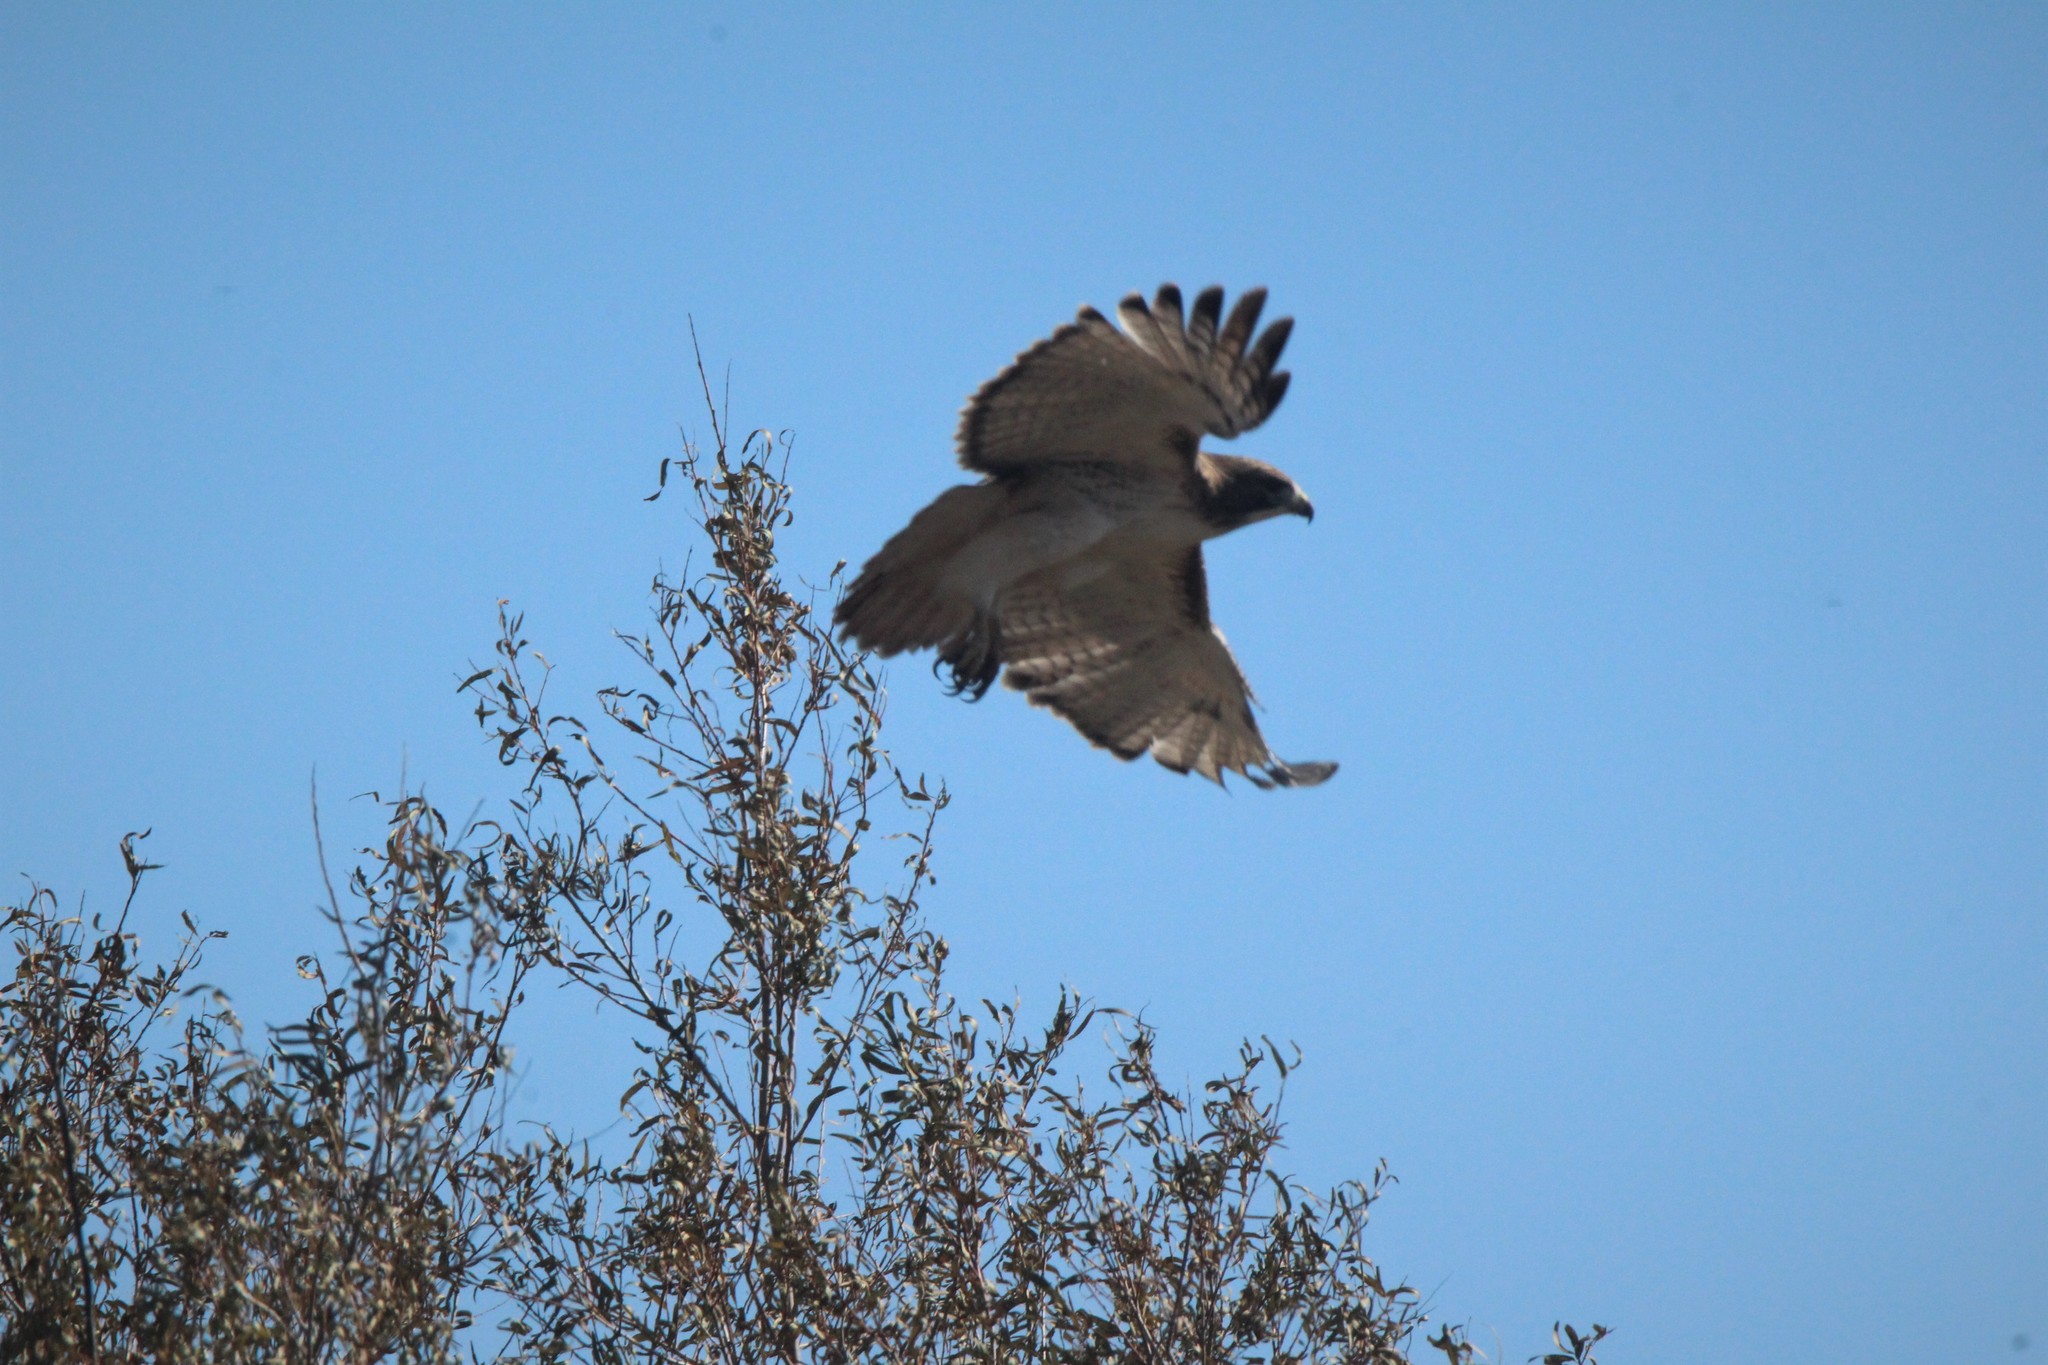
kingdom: Animalia
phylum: Chordata
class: Aves
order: Accipitriformes
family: Accipitridae
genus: Buteo
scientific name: Buteo jamaicensis
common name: Red-tailed hawk
